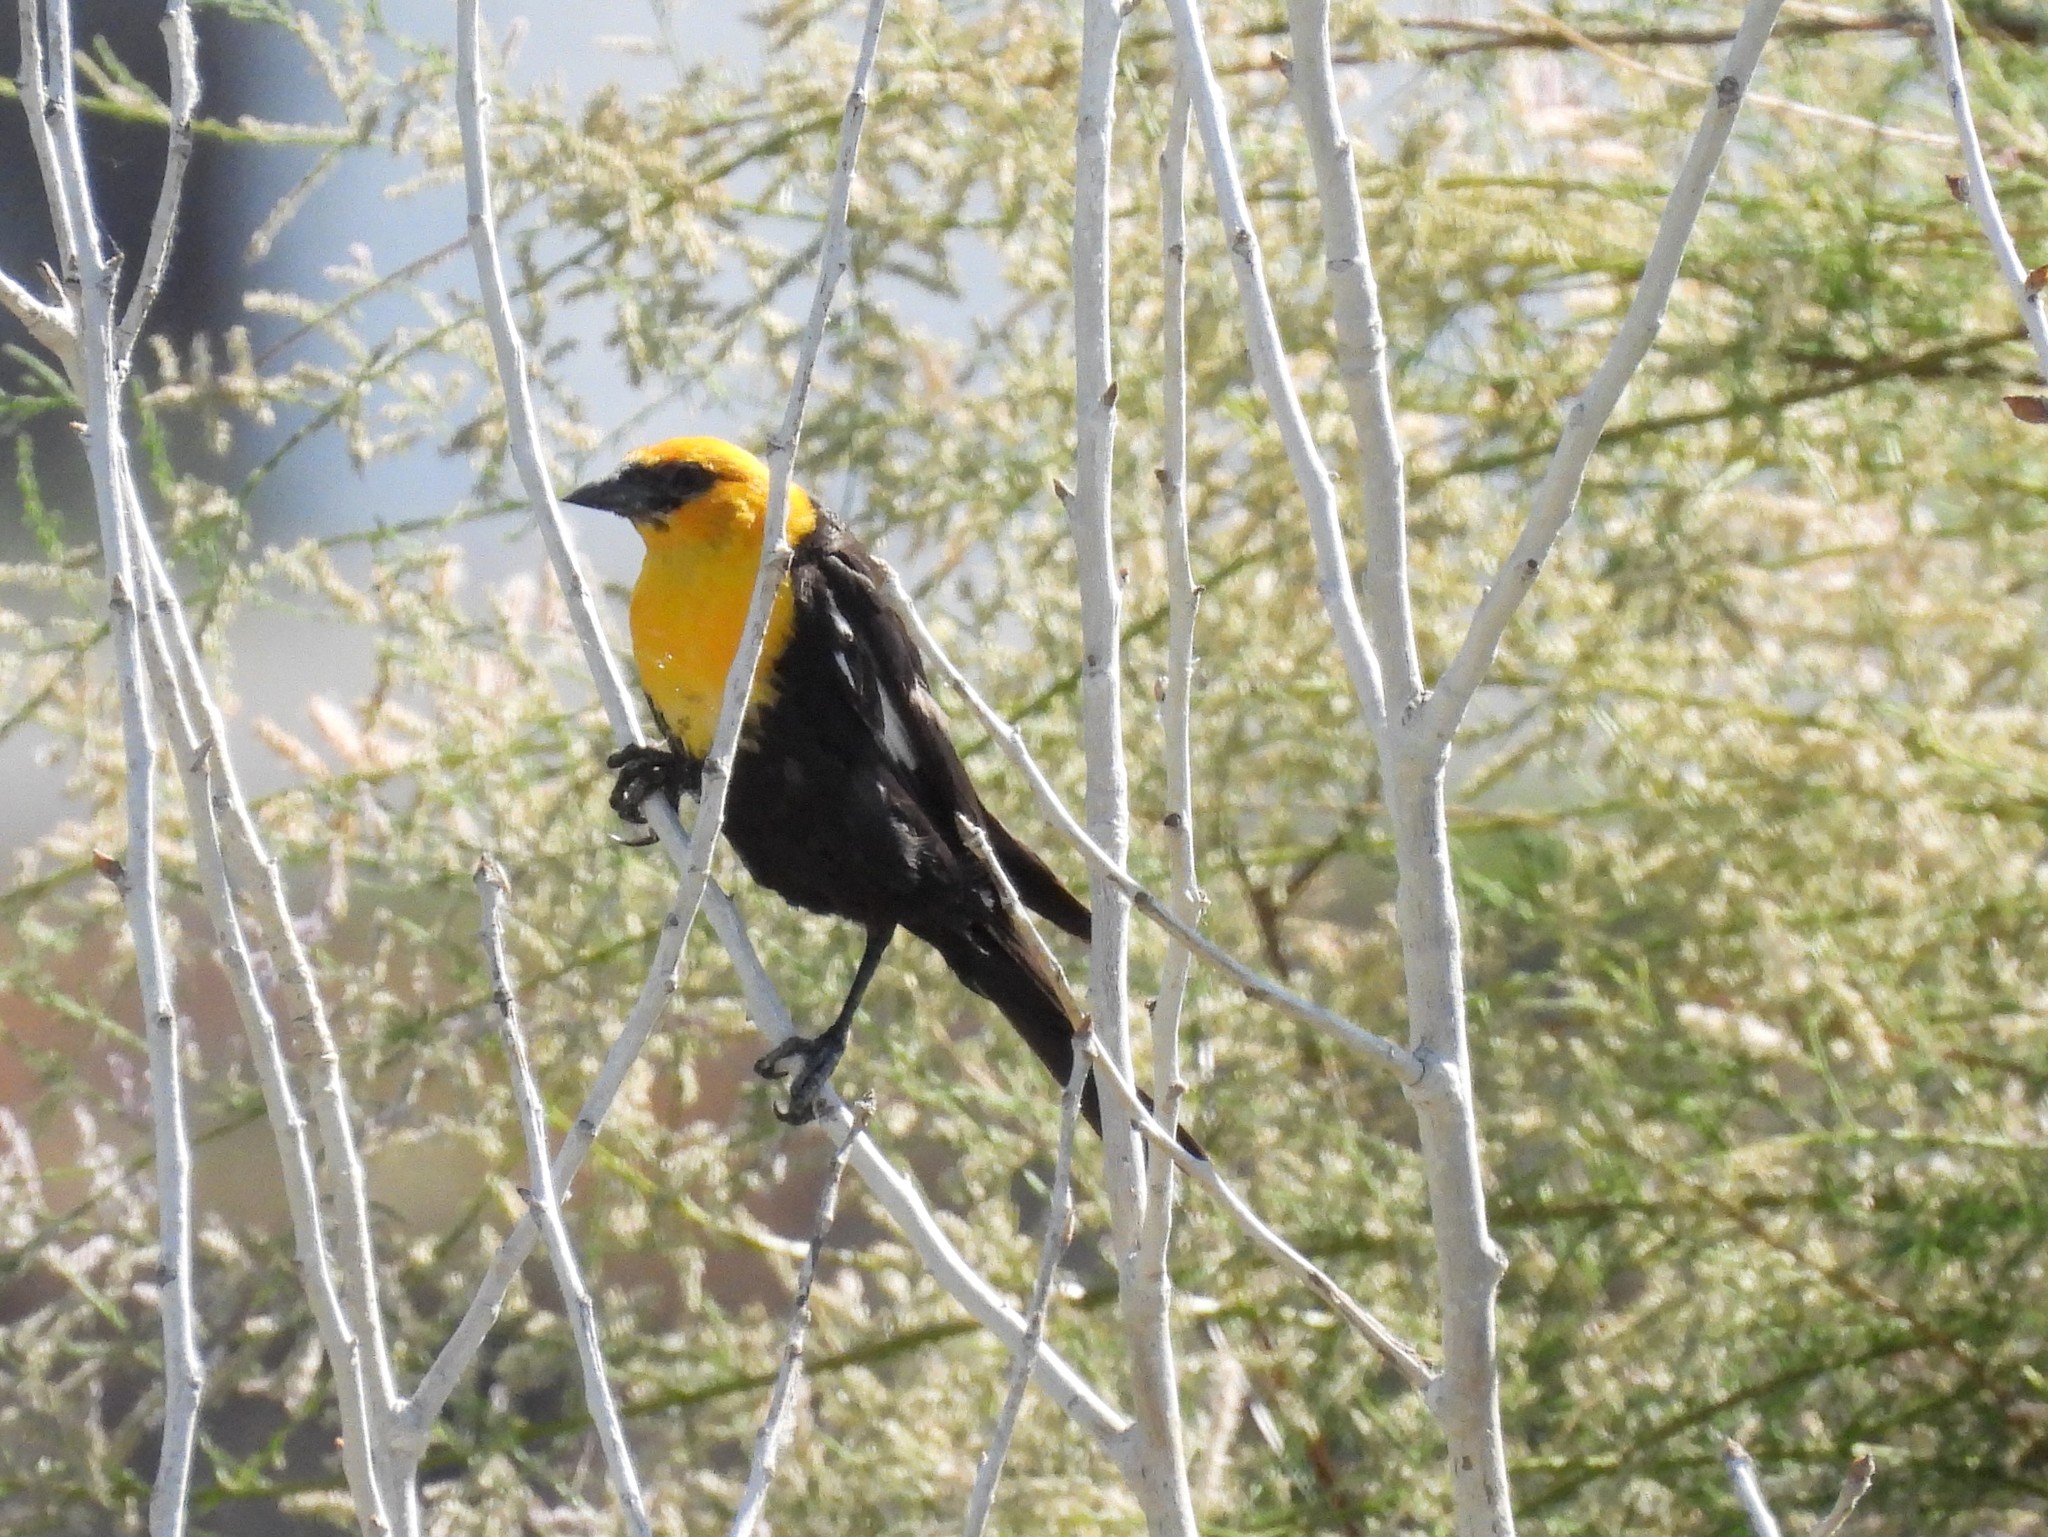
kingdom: Animalia
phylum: Chordata
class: Aves
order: Passeriformes
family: Icteridae
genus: Xanthocephalus
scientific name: Xanthocephalus xanthocephalus
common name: Yellow-headed blackbird
